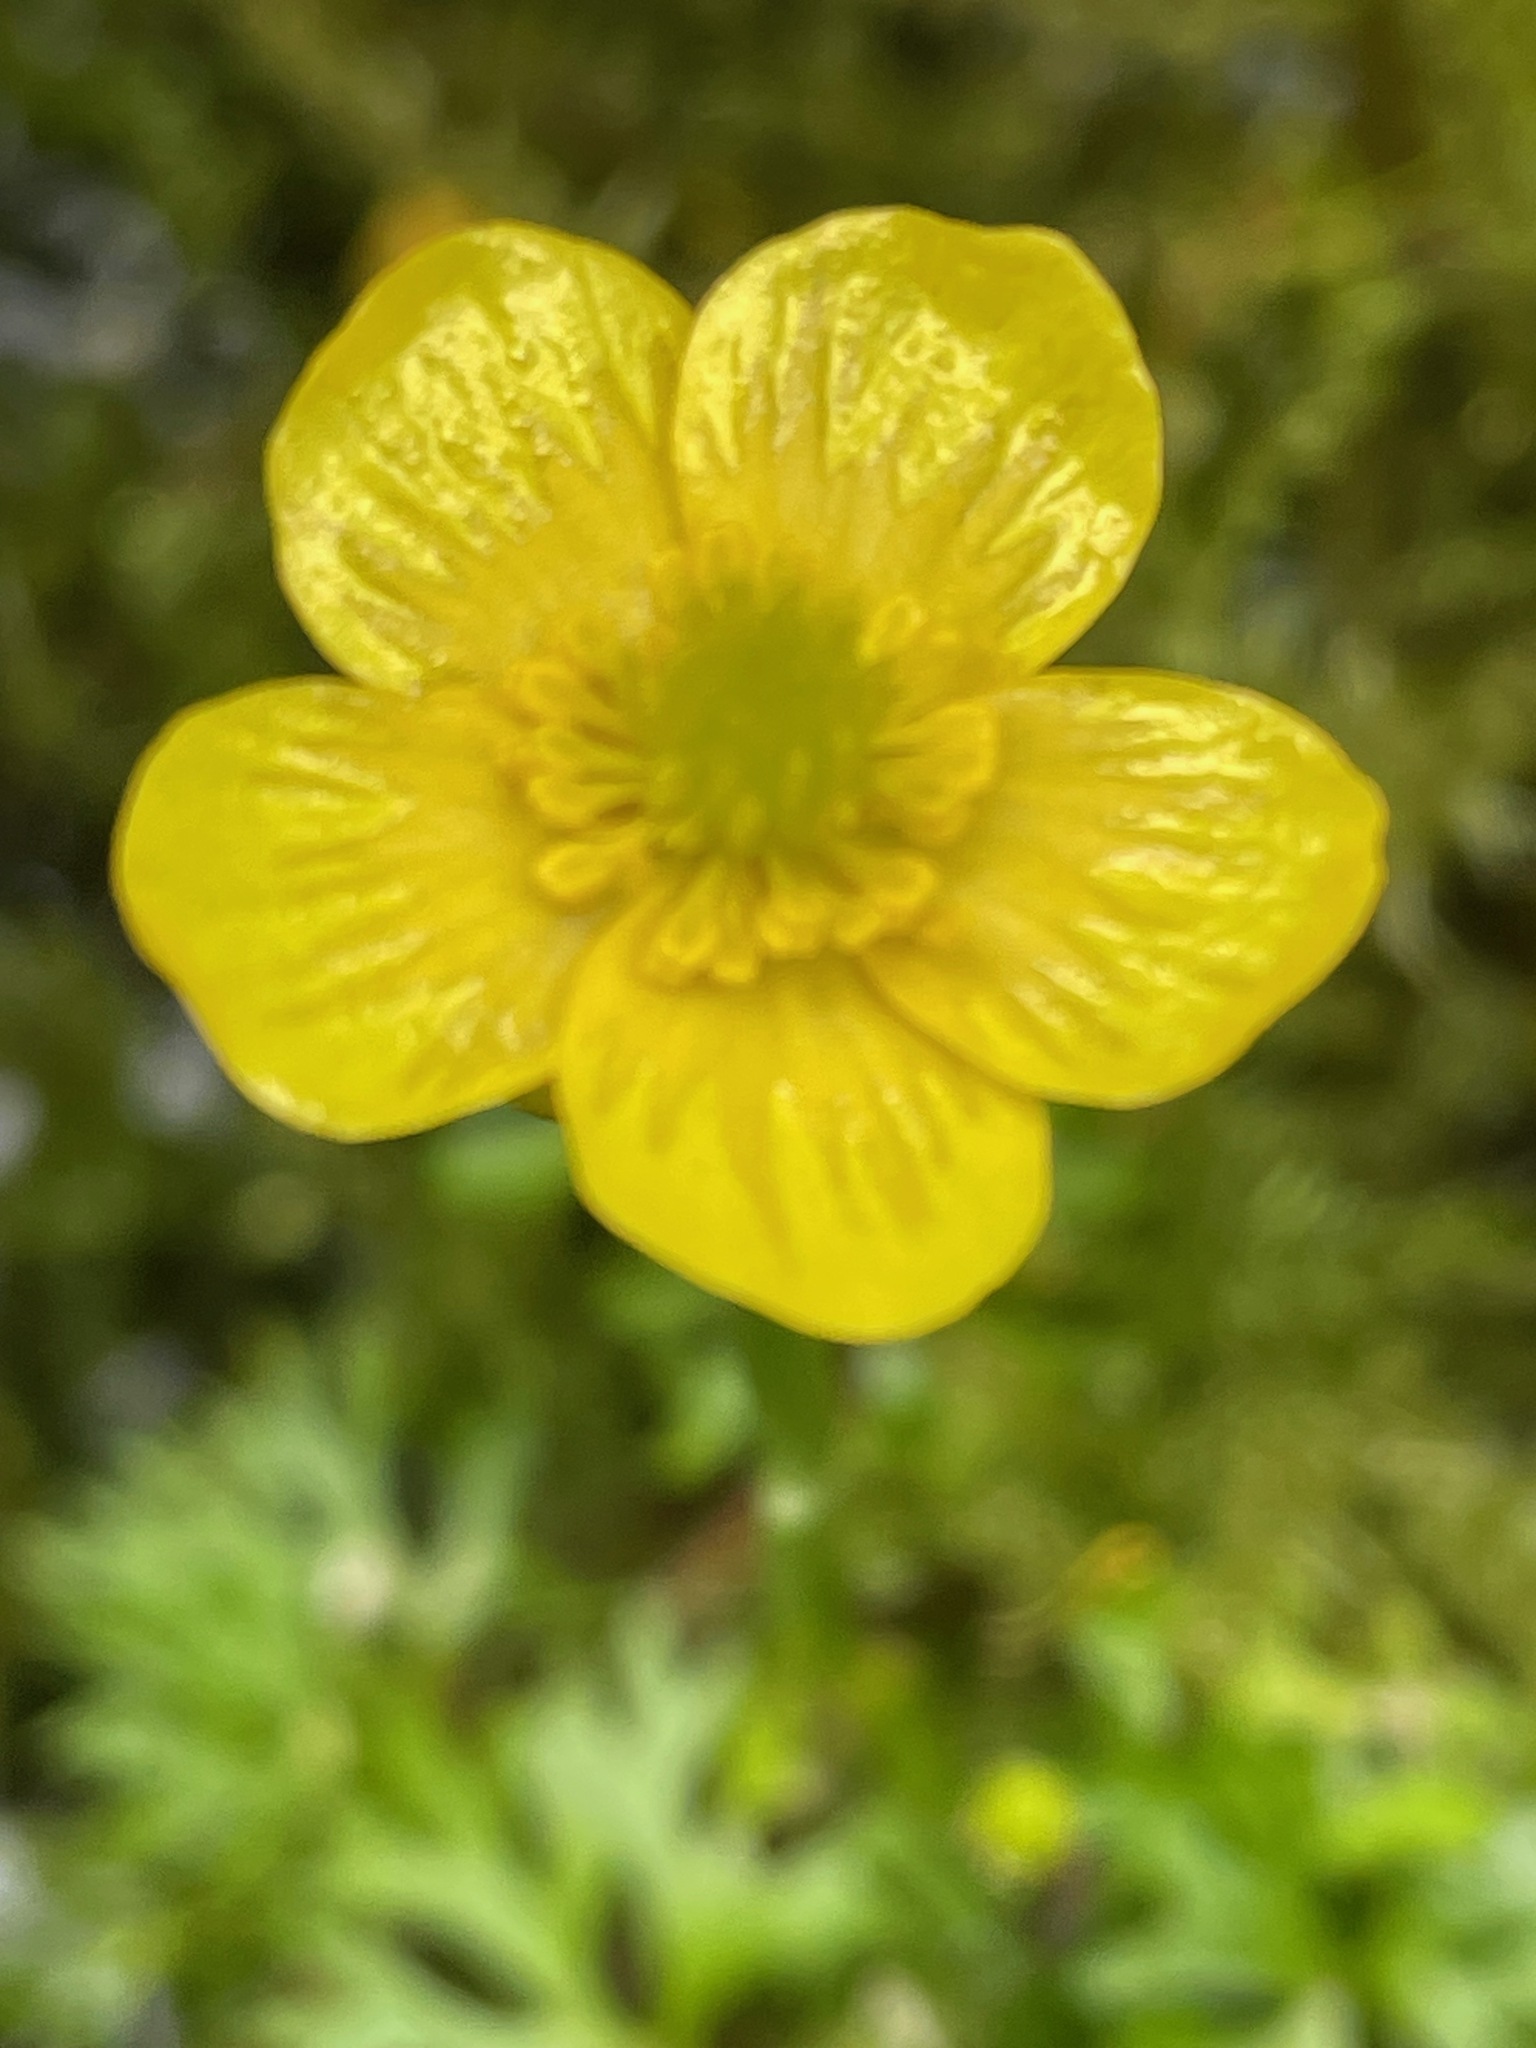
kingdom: Plantae
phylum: Tracheophyta
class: Magnoliopsida
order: Ranunculales
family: Ranunculaceae
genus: Ranunculus
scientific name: Ranunculus flabellaris
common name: Yellow water-crowfoot
